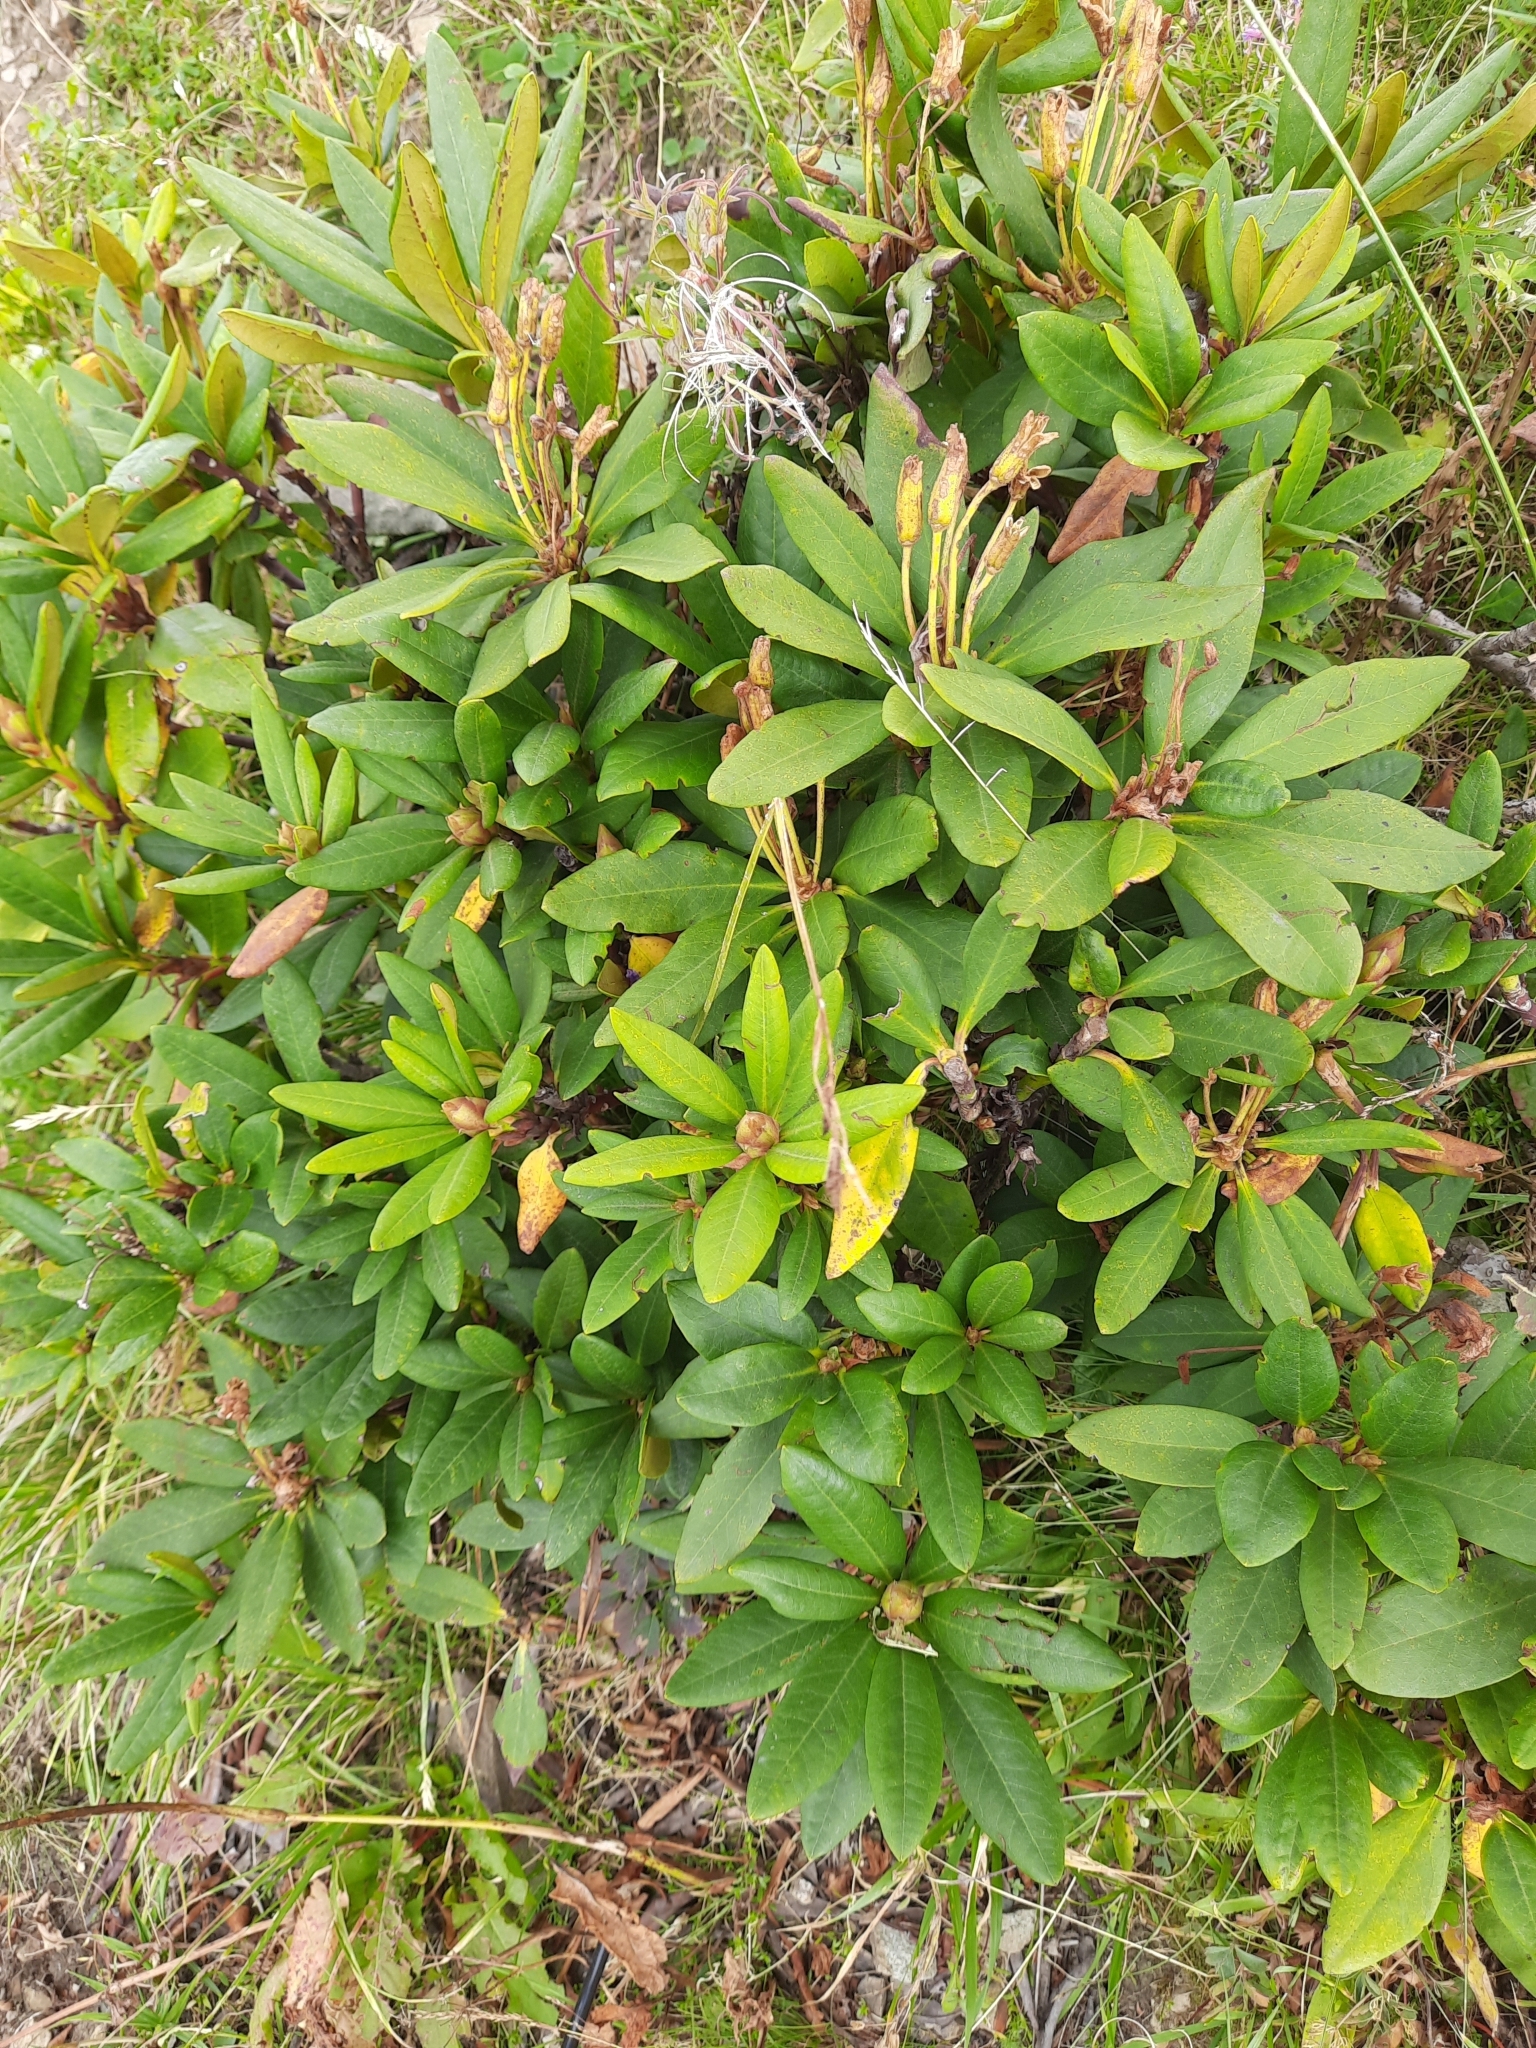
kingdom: Plantae
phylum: Tracheophyta
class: Magnoliopsida
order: Ericales
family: Ericaceae
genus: Rhododendron
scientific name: Rhododendron caucasicum
